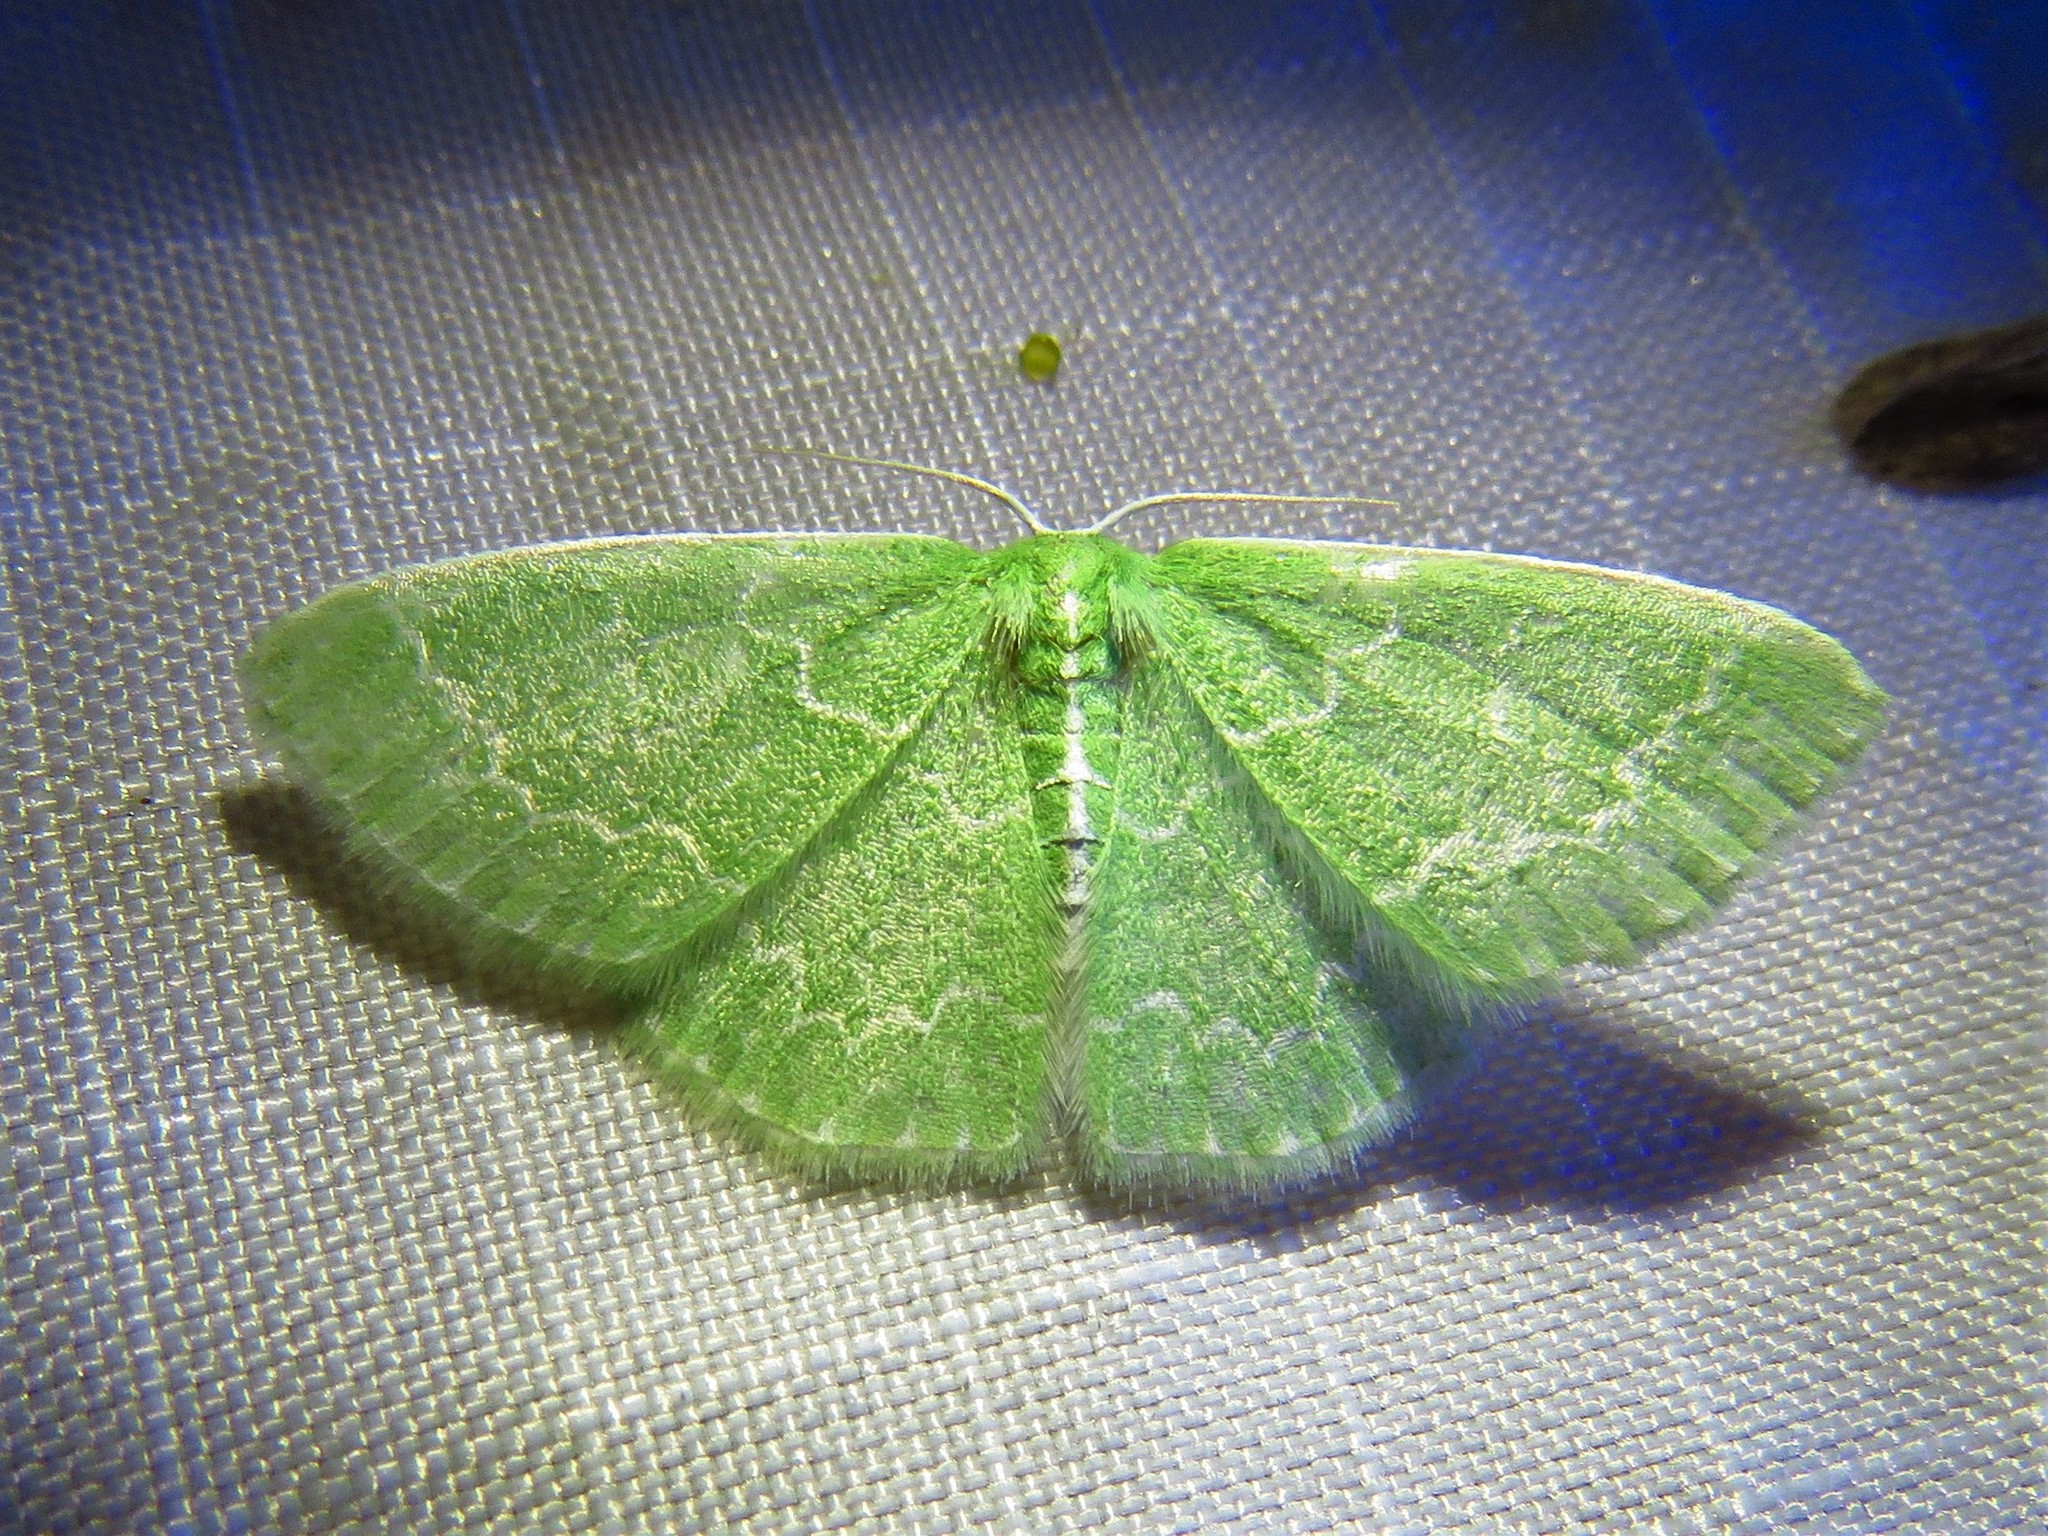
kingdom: Animalia
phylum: Arthropoda
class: Insecta
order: Lepidoptera
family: Geometridae
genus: Synchlora
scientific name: Synchlora frondaria
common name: Southern emerald
